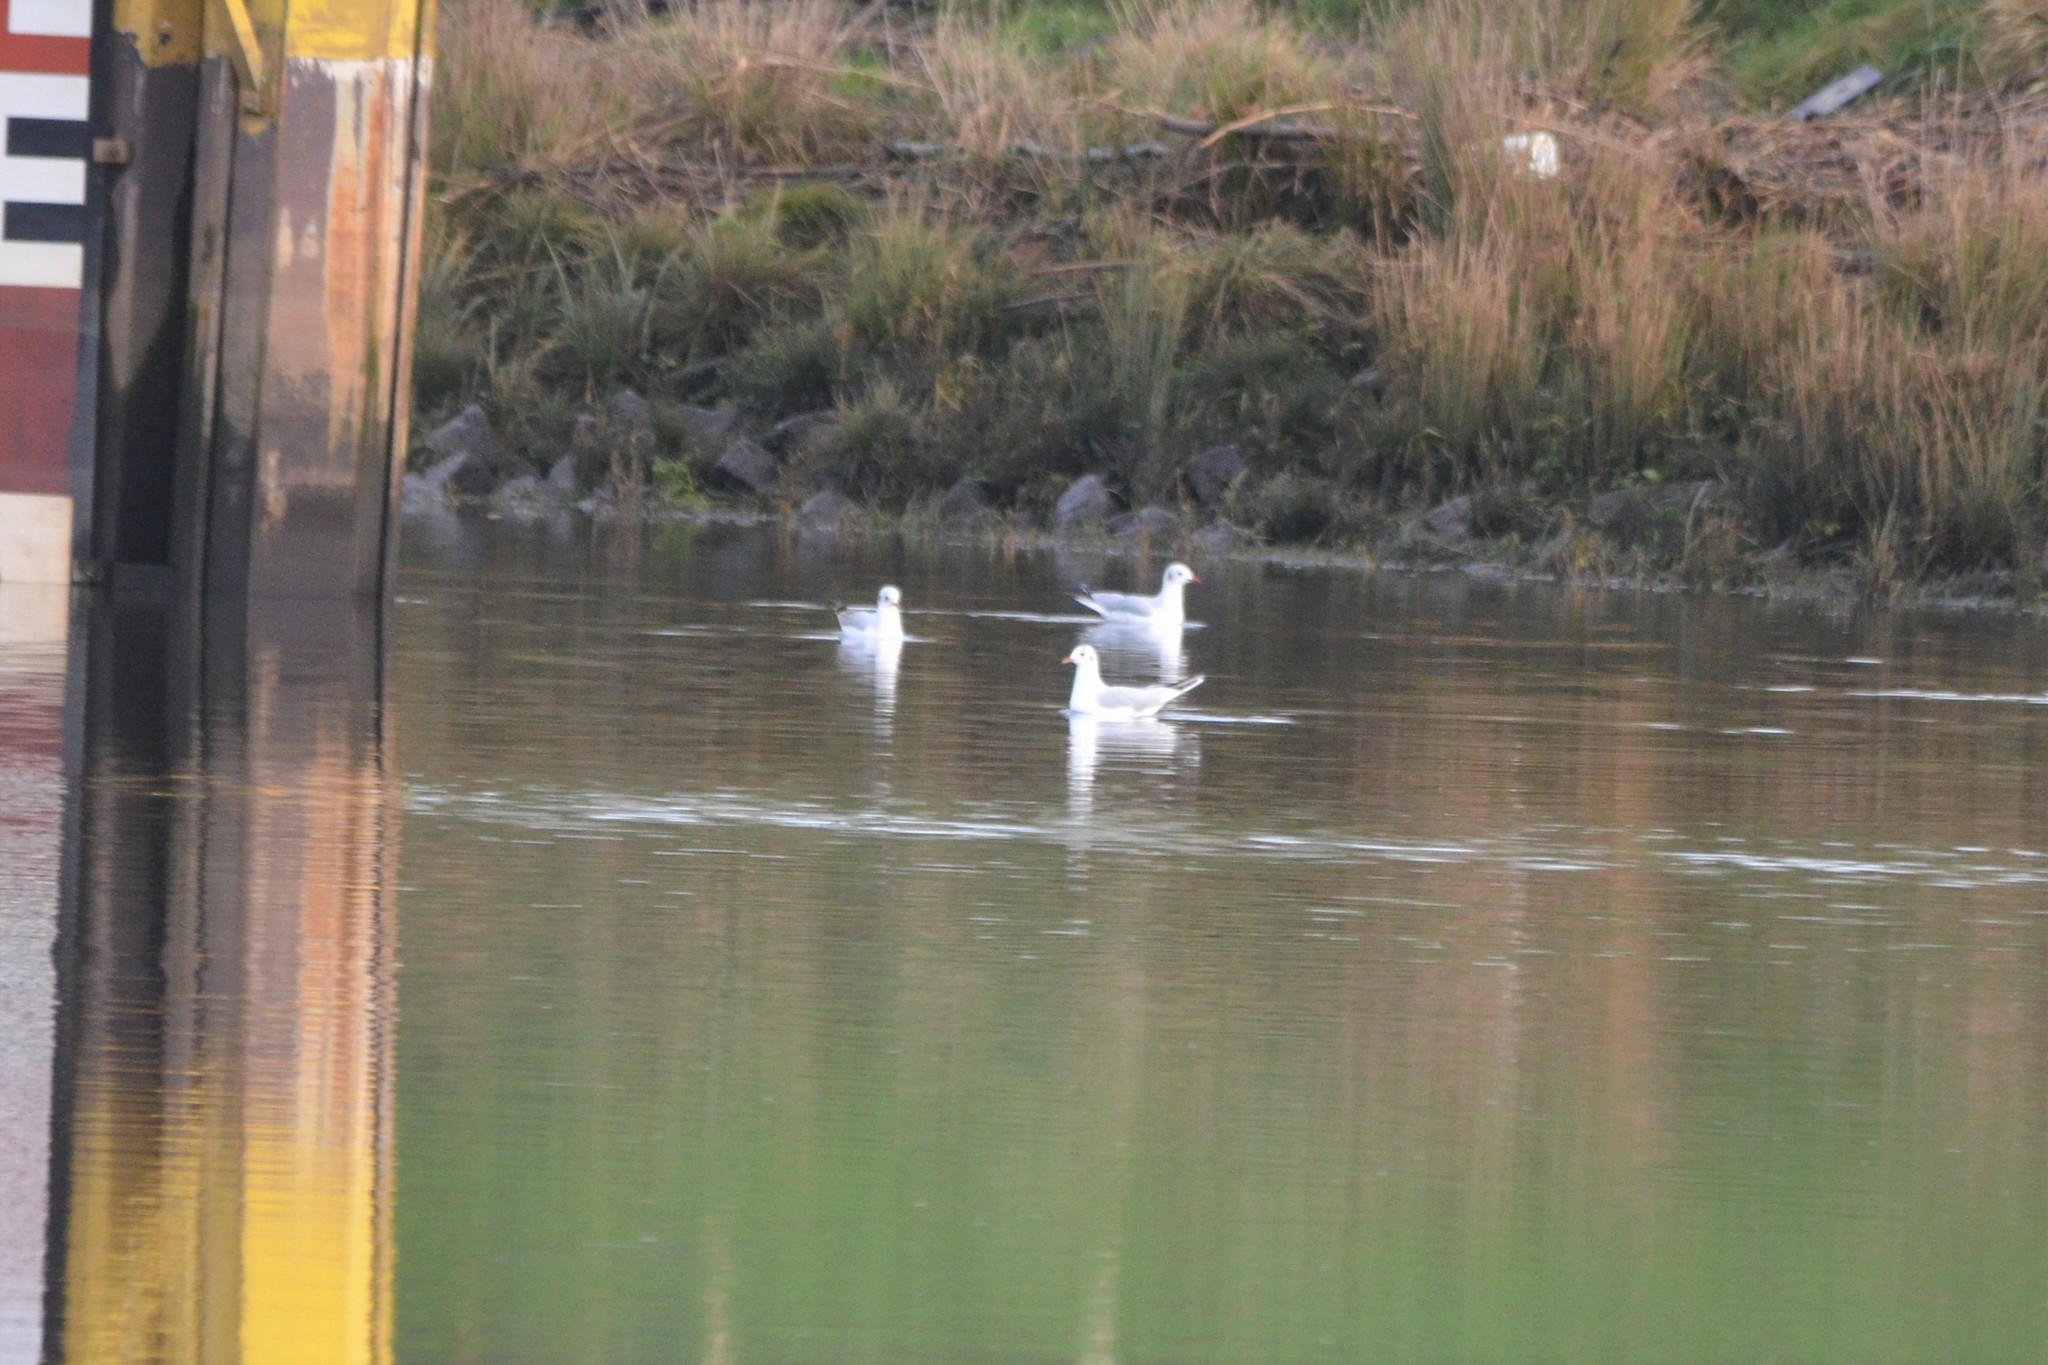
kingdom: Animalia
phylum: Chordata
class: Aves
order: Charadriiformes
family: Laridae
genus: Chroicocephalus
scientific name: Chroicocephalus ridibundus
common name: Black-headed gull
